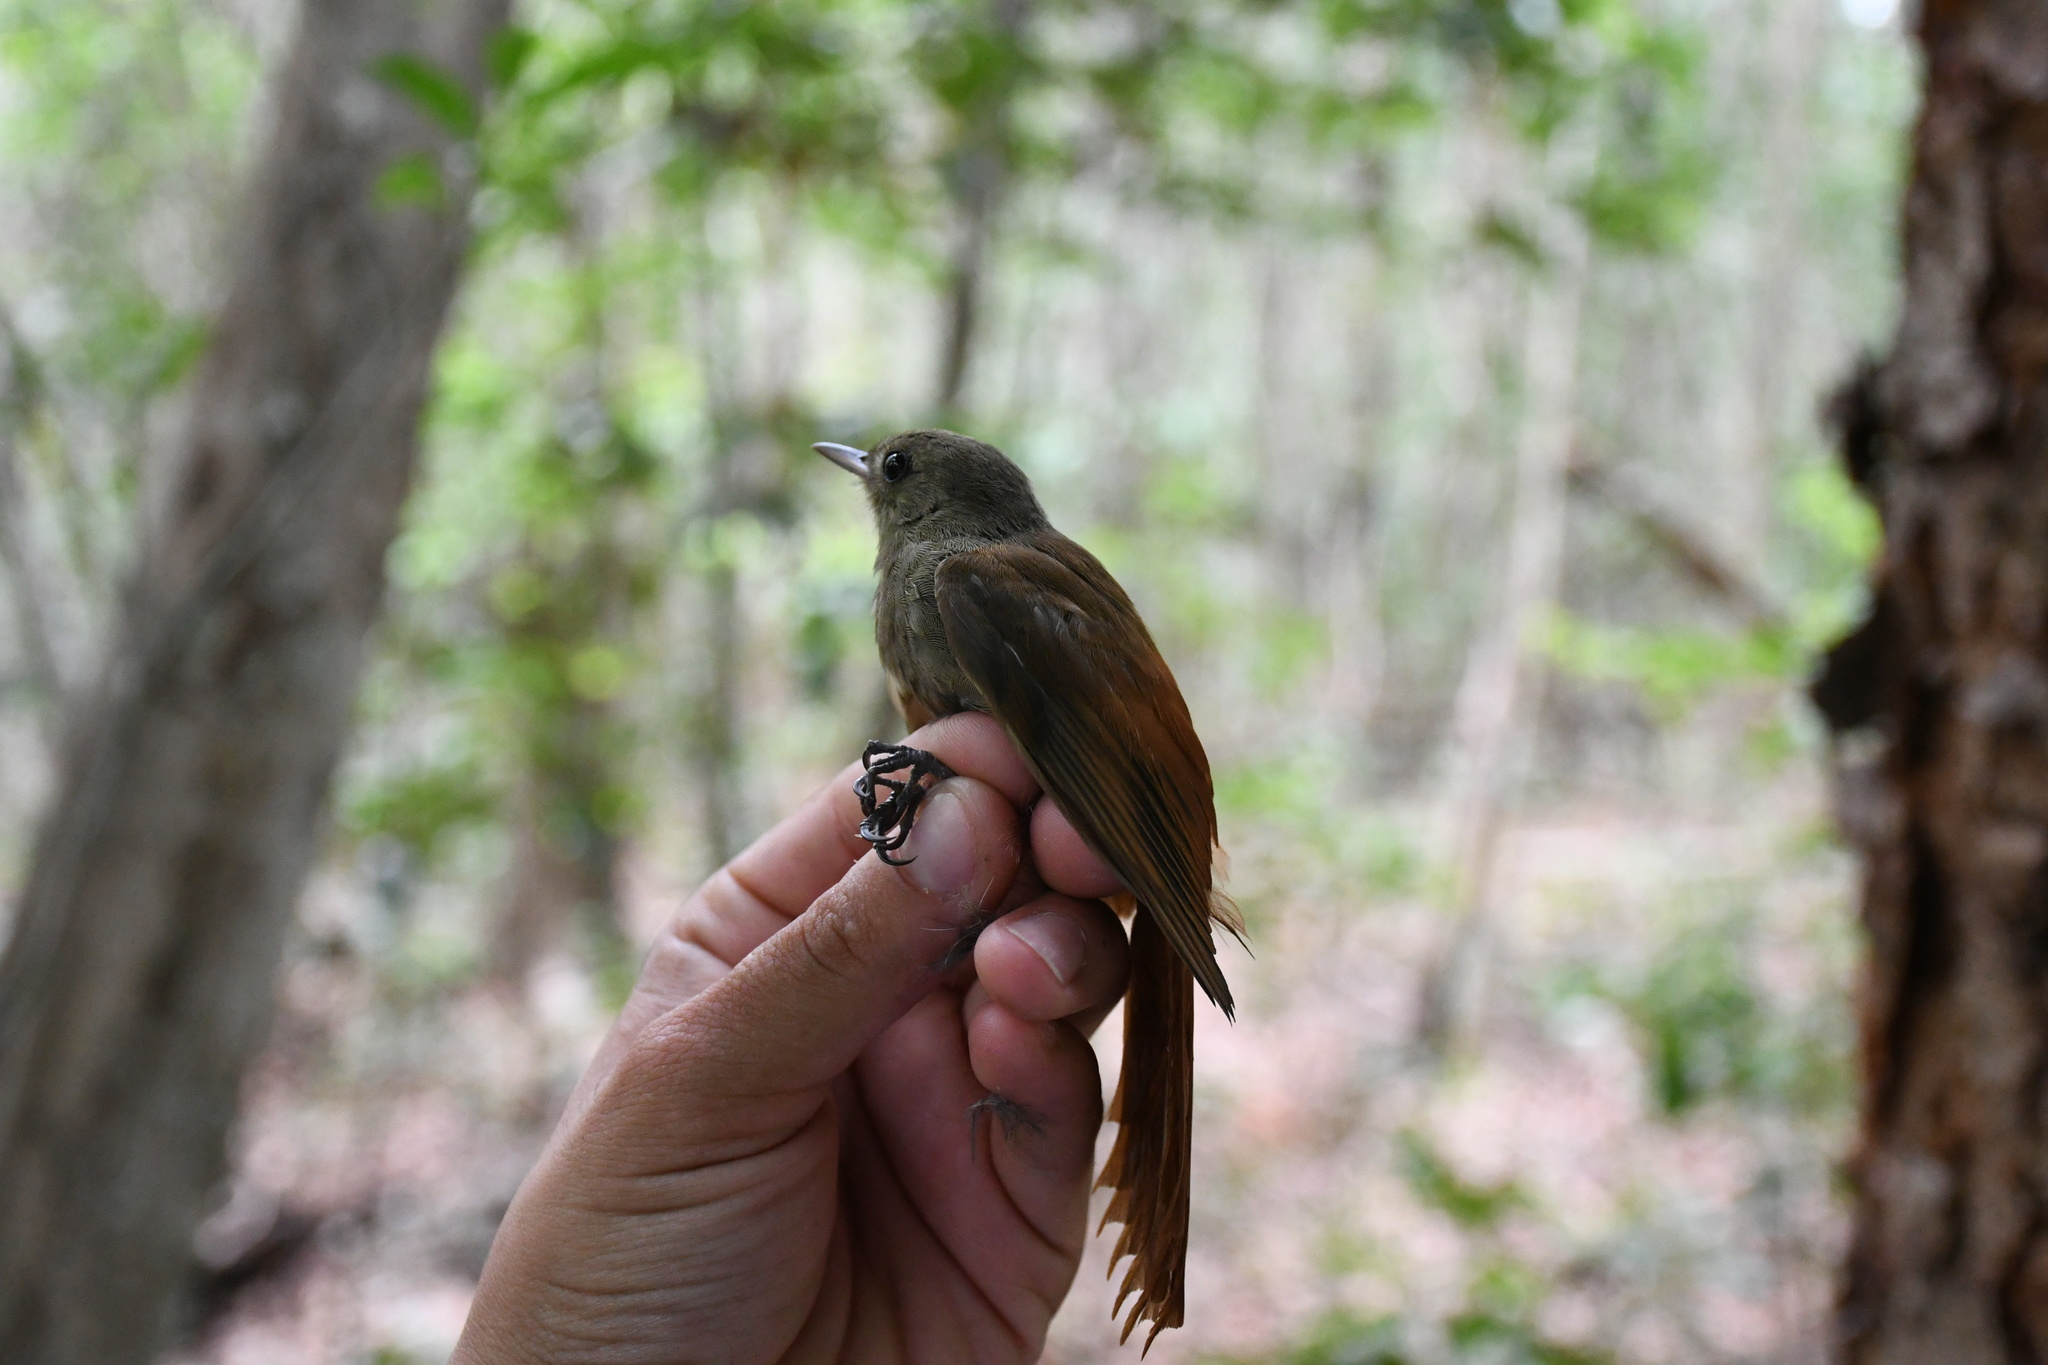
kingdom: Animalia
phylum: Chordata
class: Aves
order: Passeriformes
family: Furnariidae
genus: Sittasomus
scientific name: Sittasomus griseicapillus
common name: Olivaceous woodcreeper
